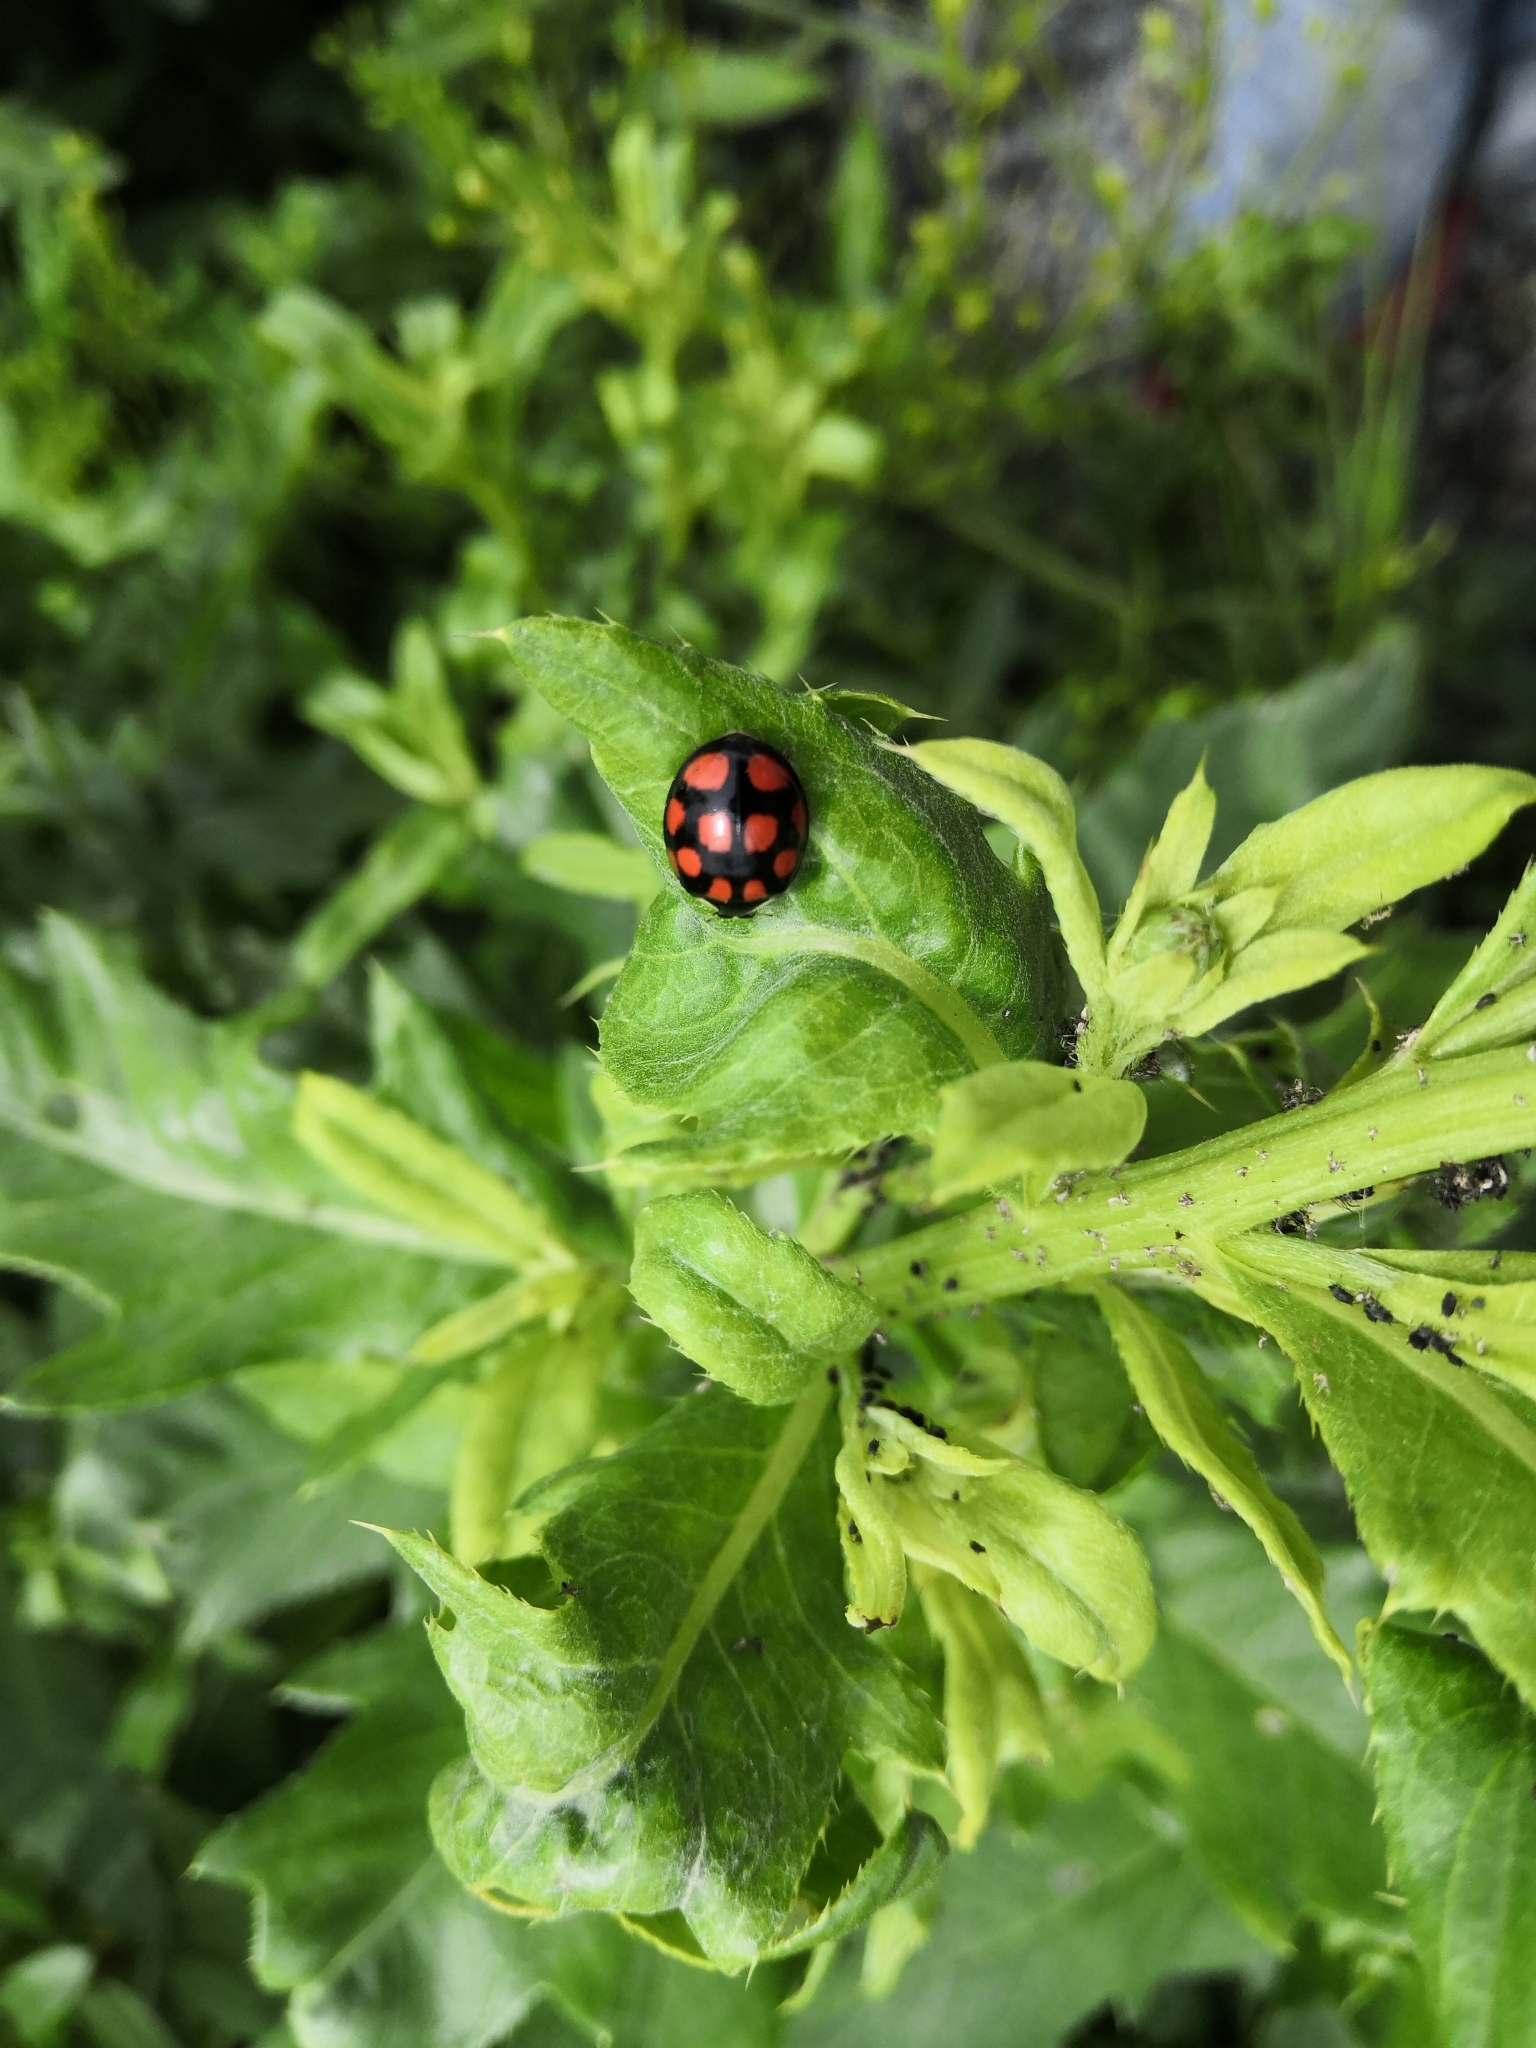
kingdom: Animalia
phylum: Arthropoda
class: Insecta
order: Coleoptera
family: Coccinellidae
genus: Harmonia
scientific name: Harmonia axyridis
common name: Harlequin ladybird
